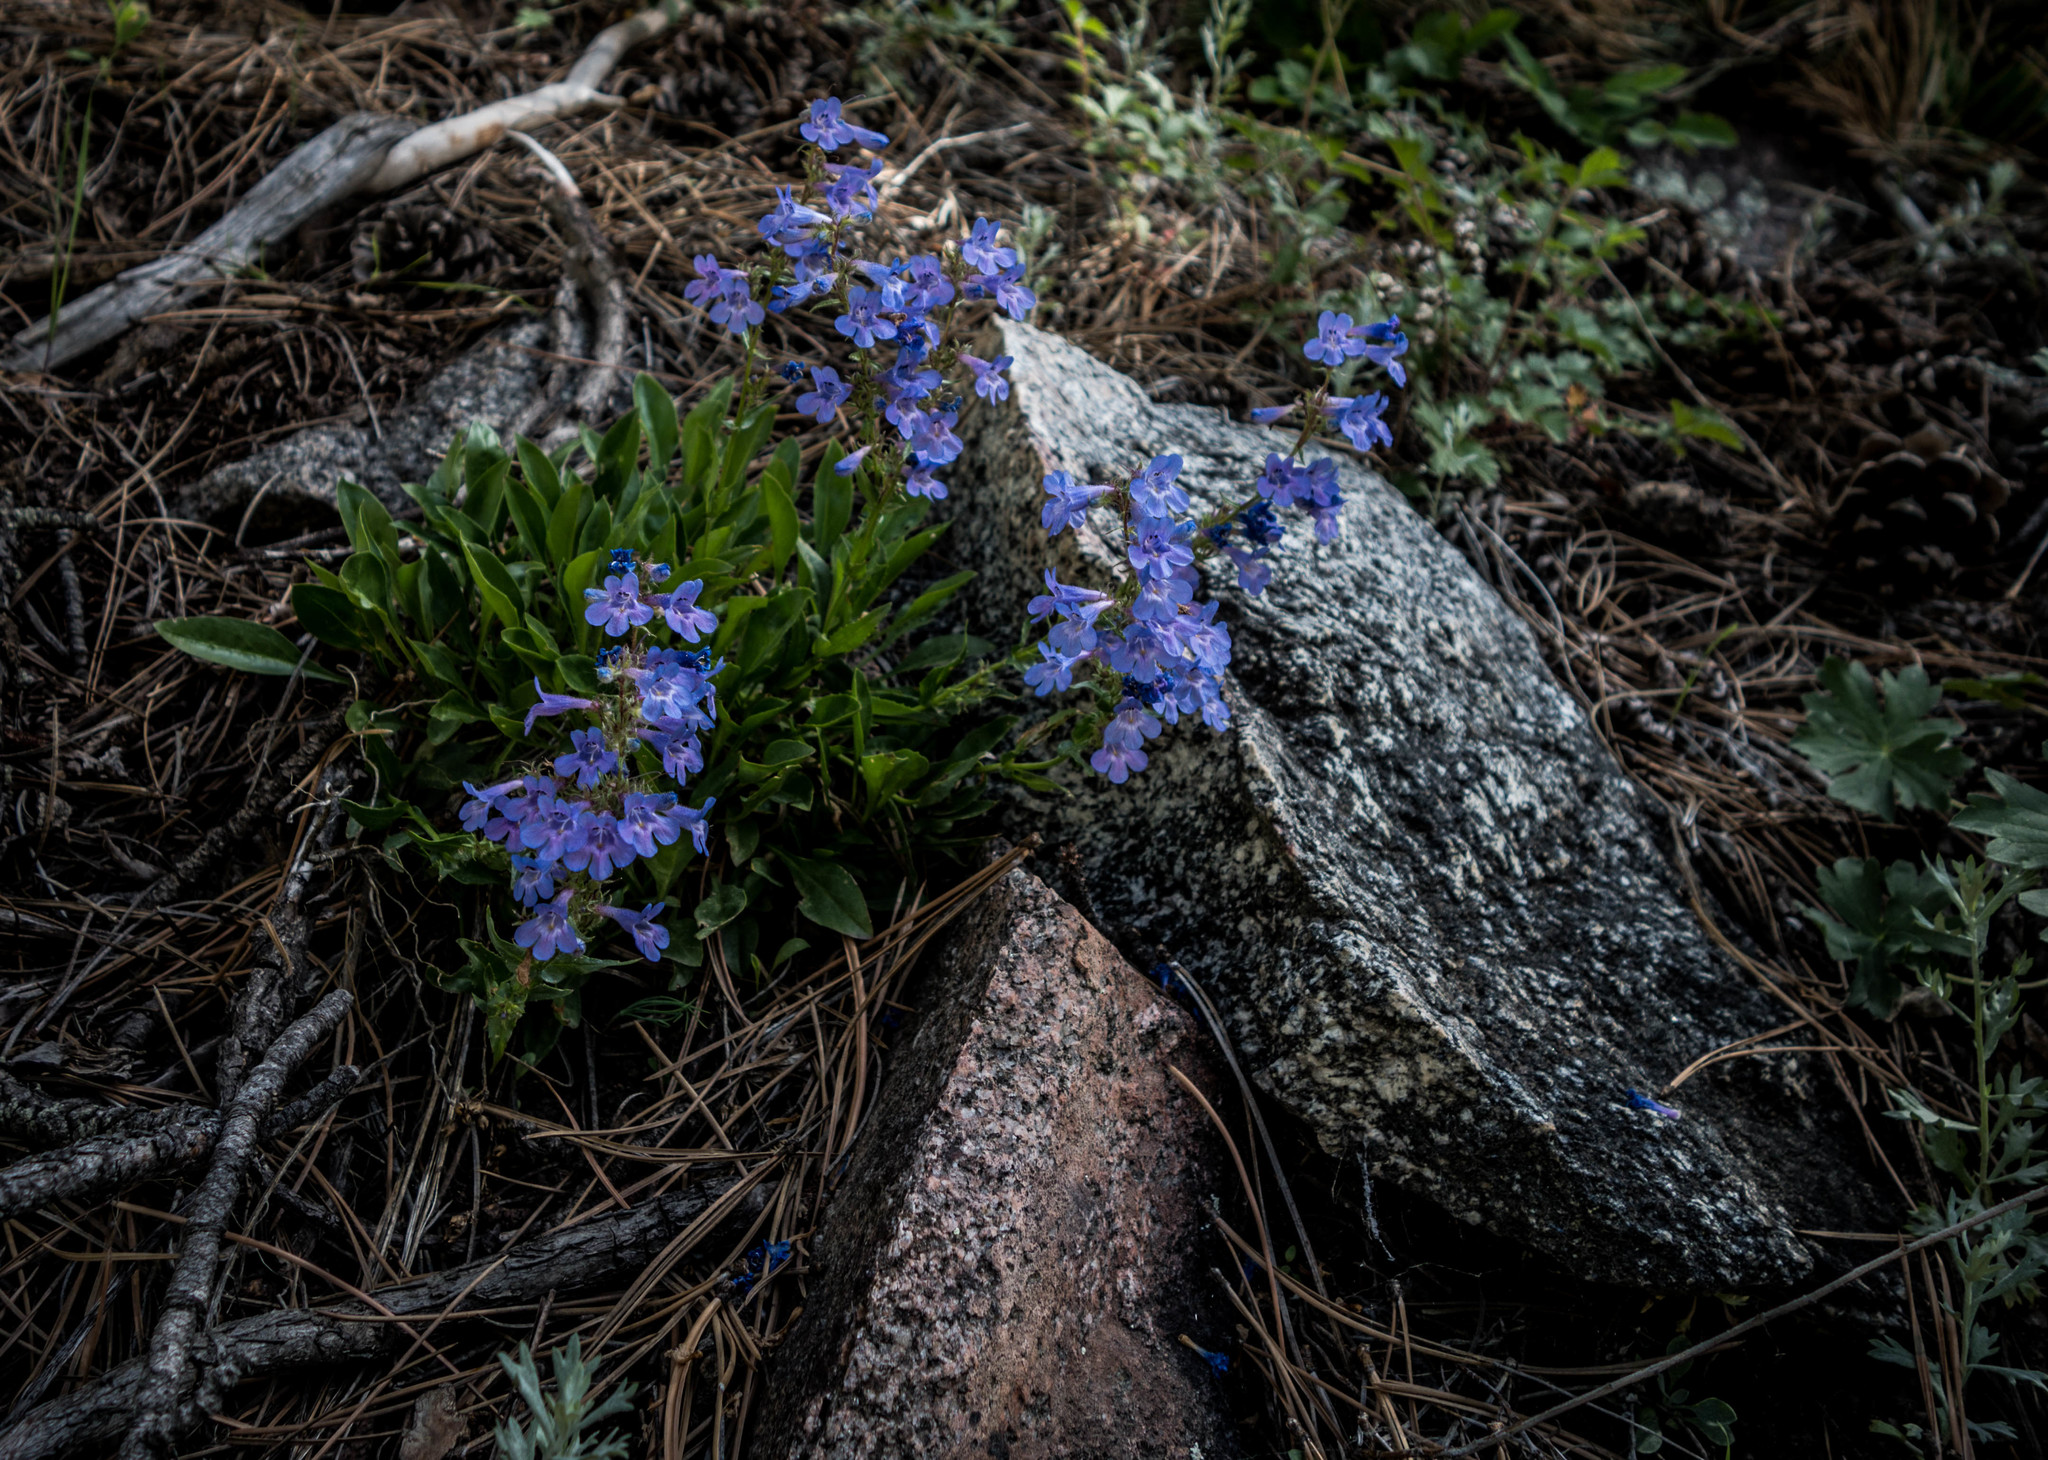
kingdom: Plantae
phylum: Tracheophyta
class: Magnoliopsida
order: Lamiales
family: Plantaginaceae
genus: Penstemon
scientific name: Penstemon virens
